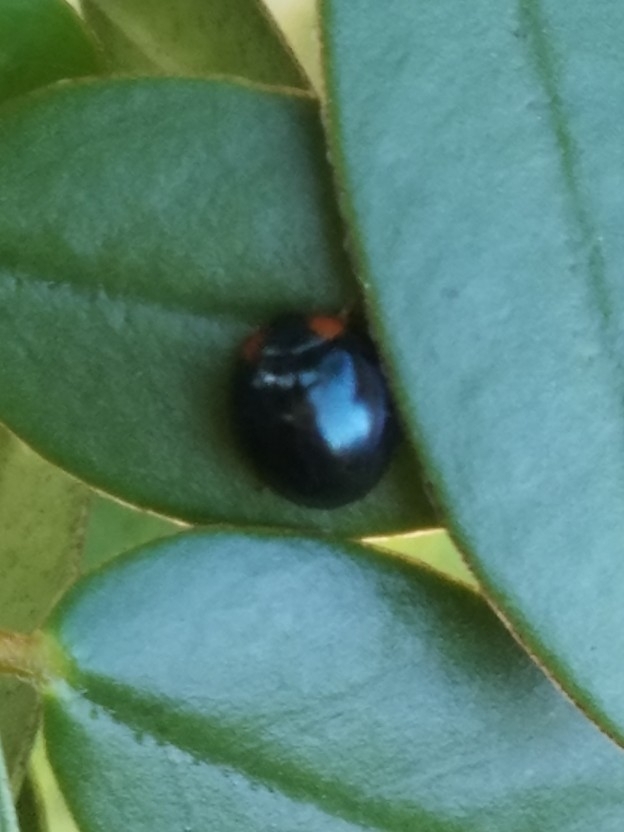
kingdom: Animalia
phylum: Arthropoda
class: Insecta
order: Coleoptera
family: Coccinellidae
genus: Curinus
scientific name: Curinus coeruleus
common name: Ladybird beetle
